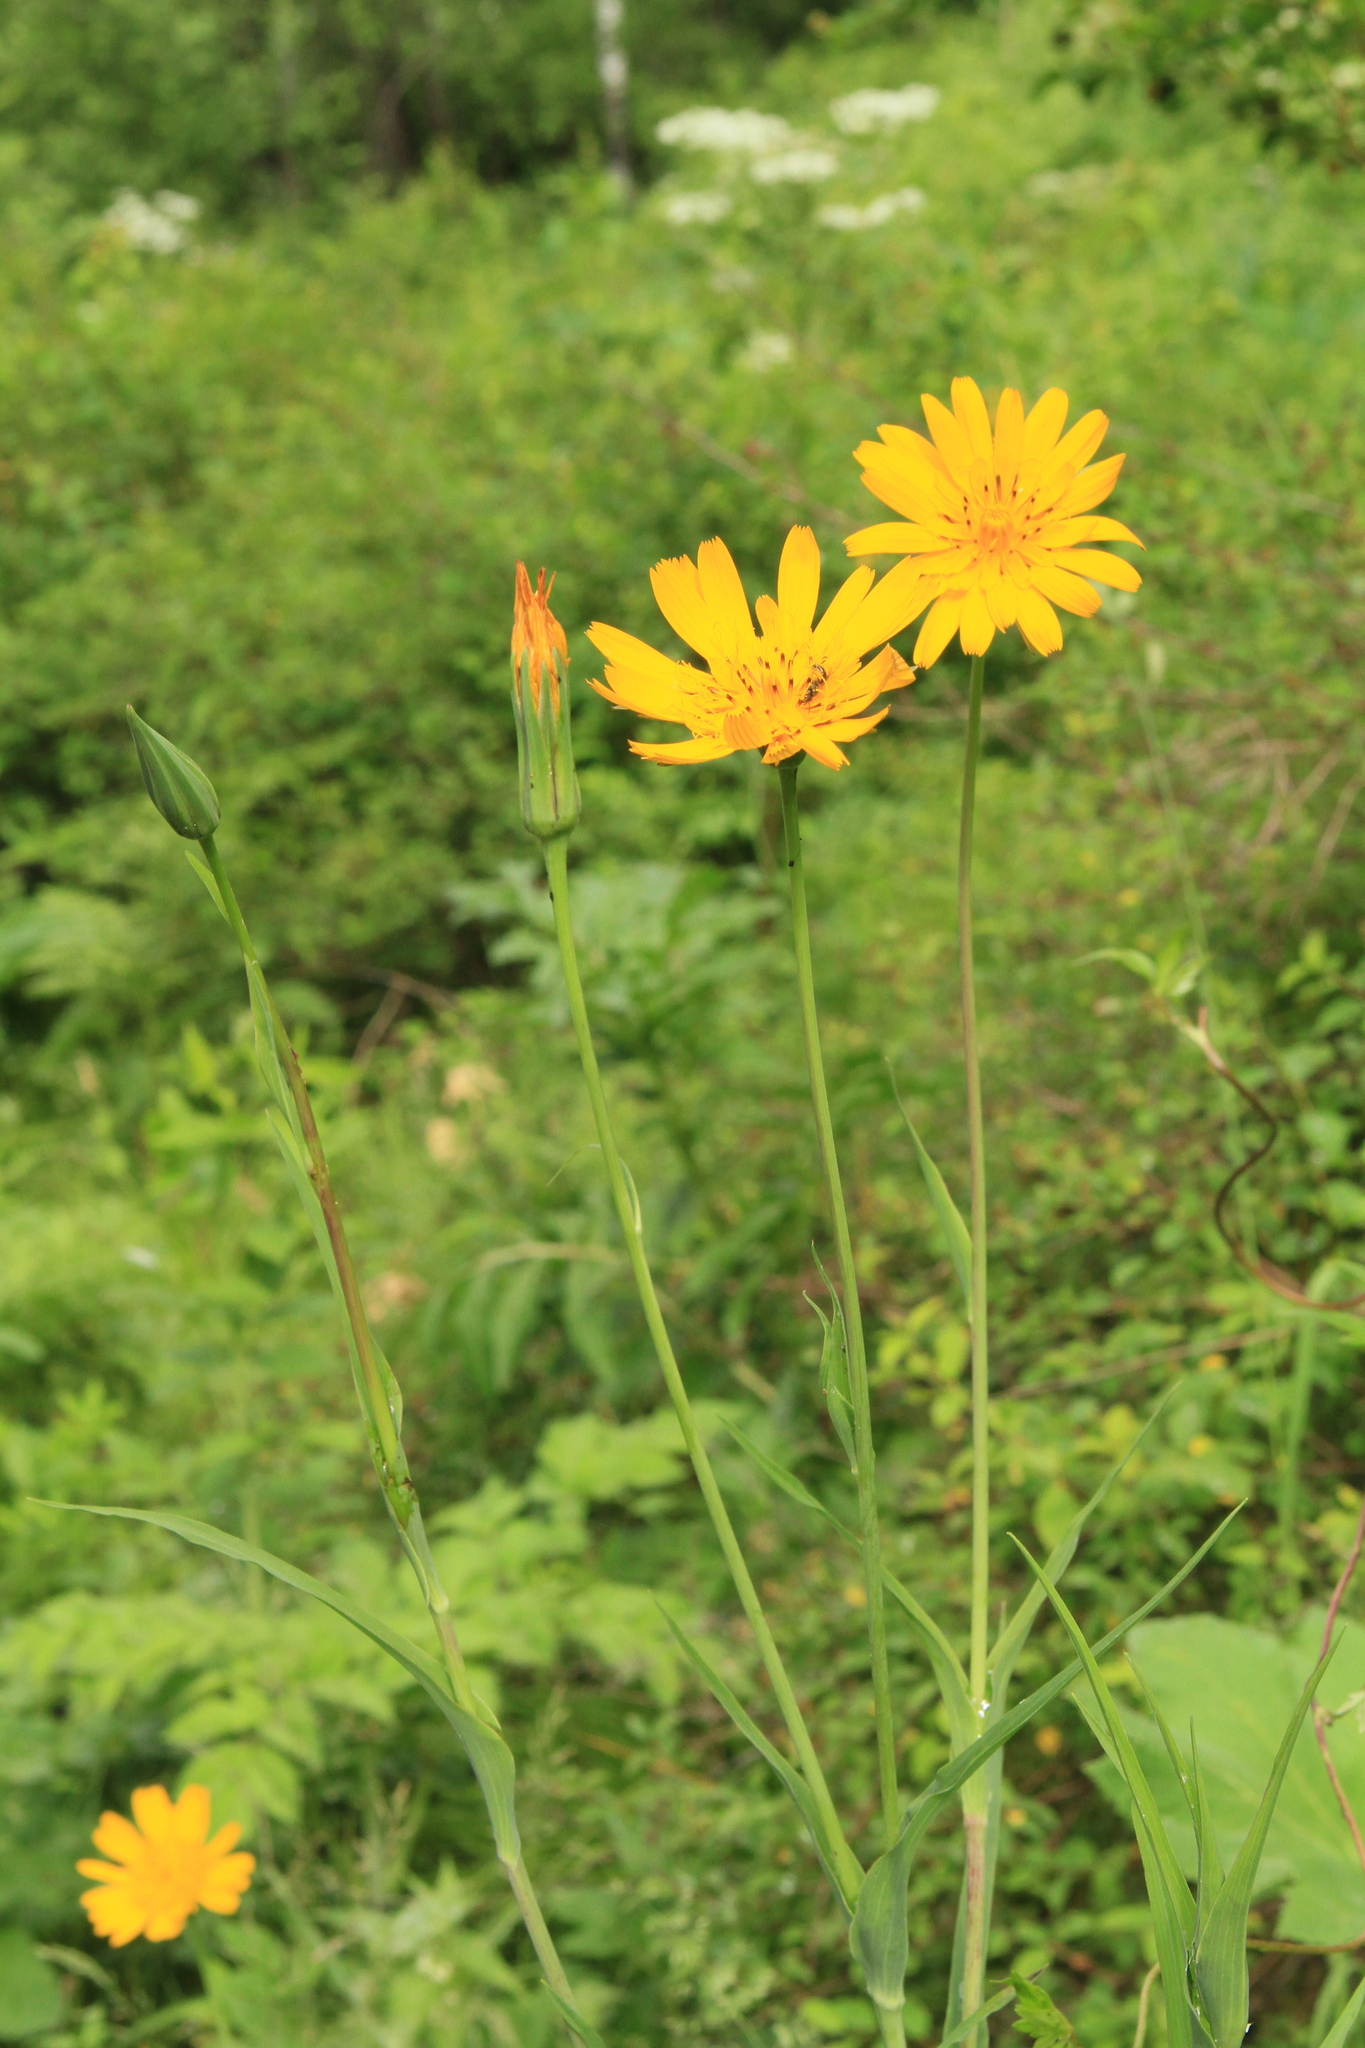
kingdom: Plantae
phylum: Tracheophyta
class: Magnoliopsida
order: Asterales
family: Asteraceae
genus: Tragopogon
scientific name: Tragopogon orientalis
